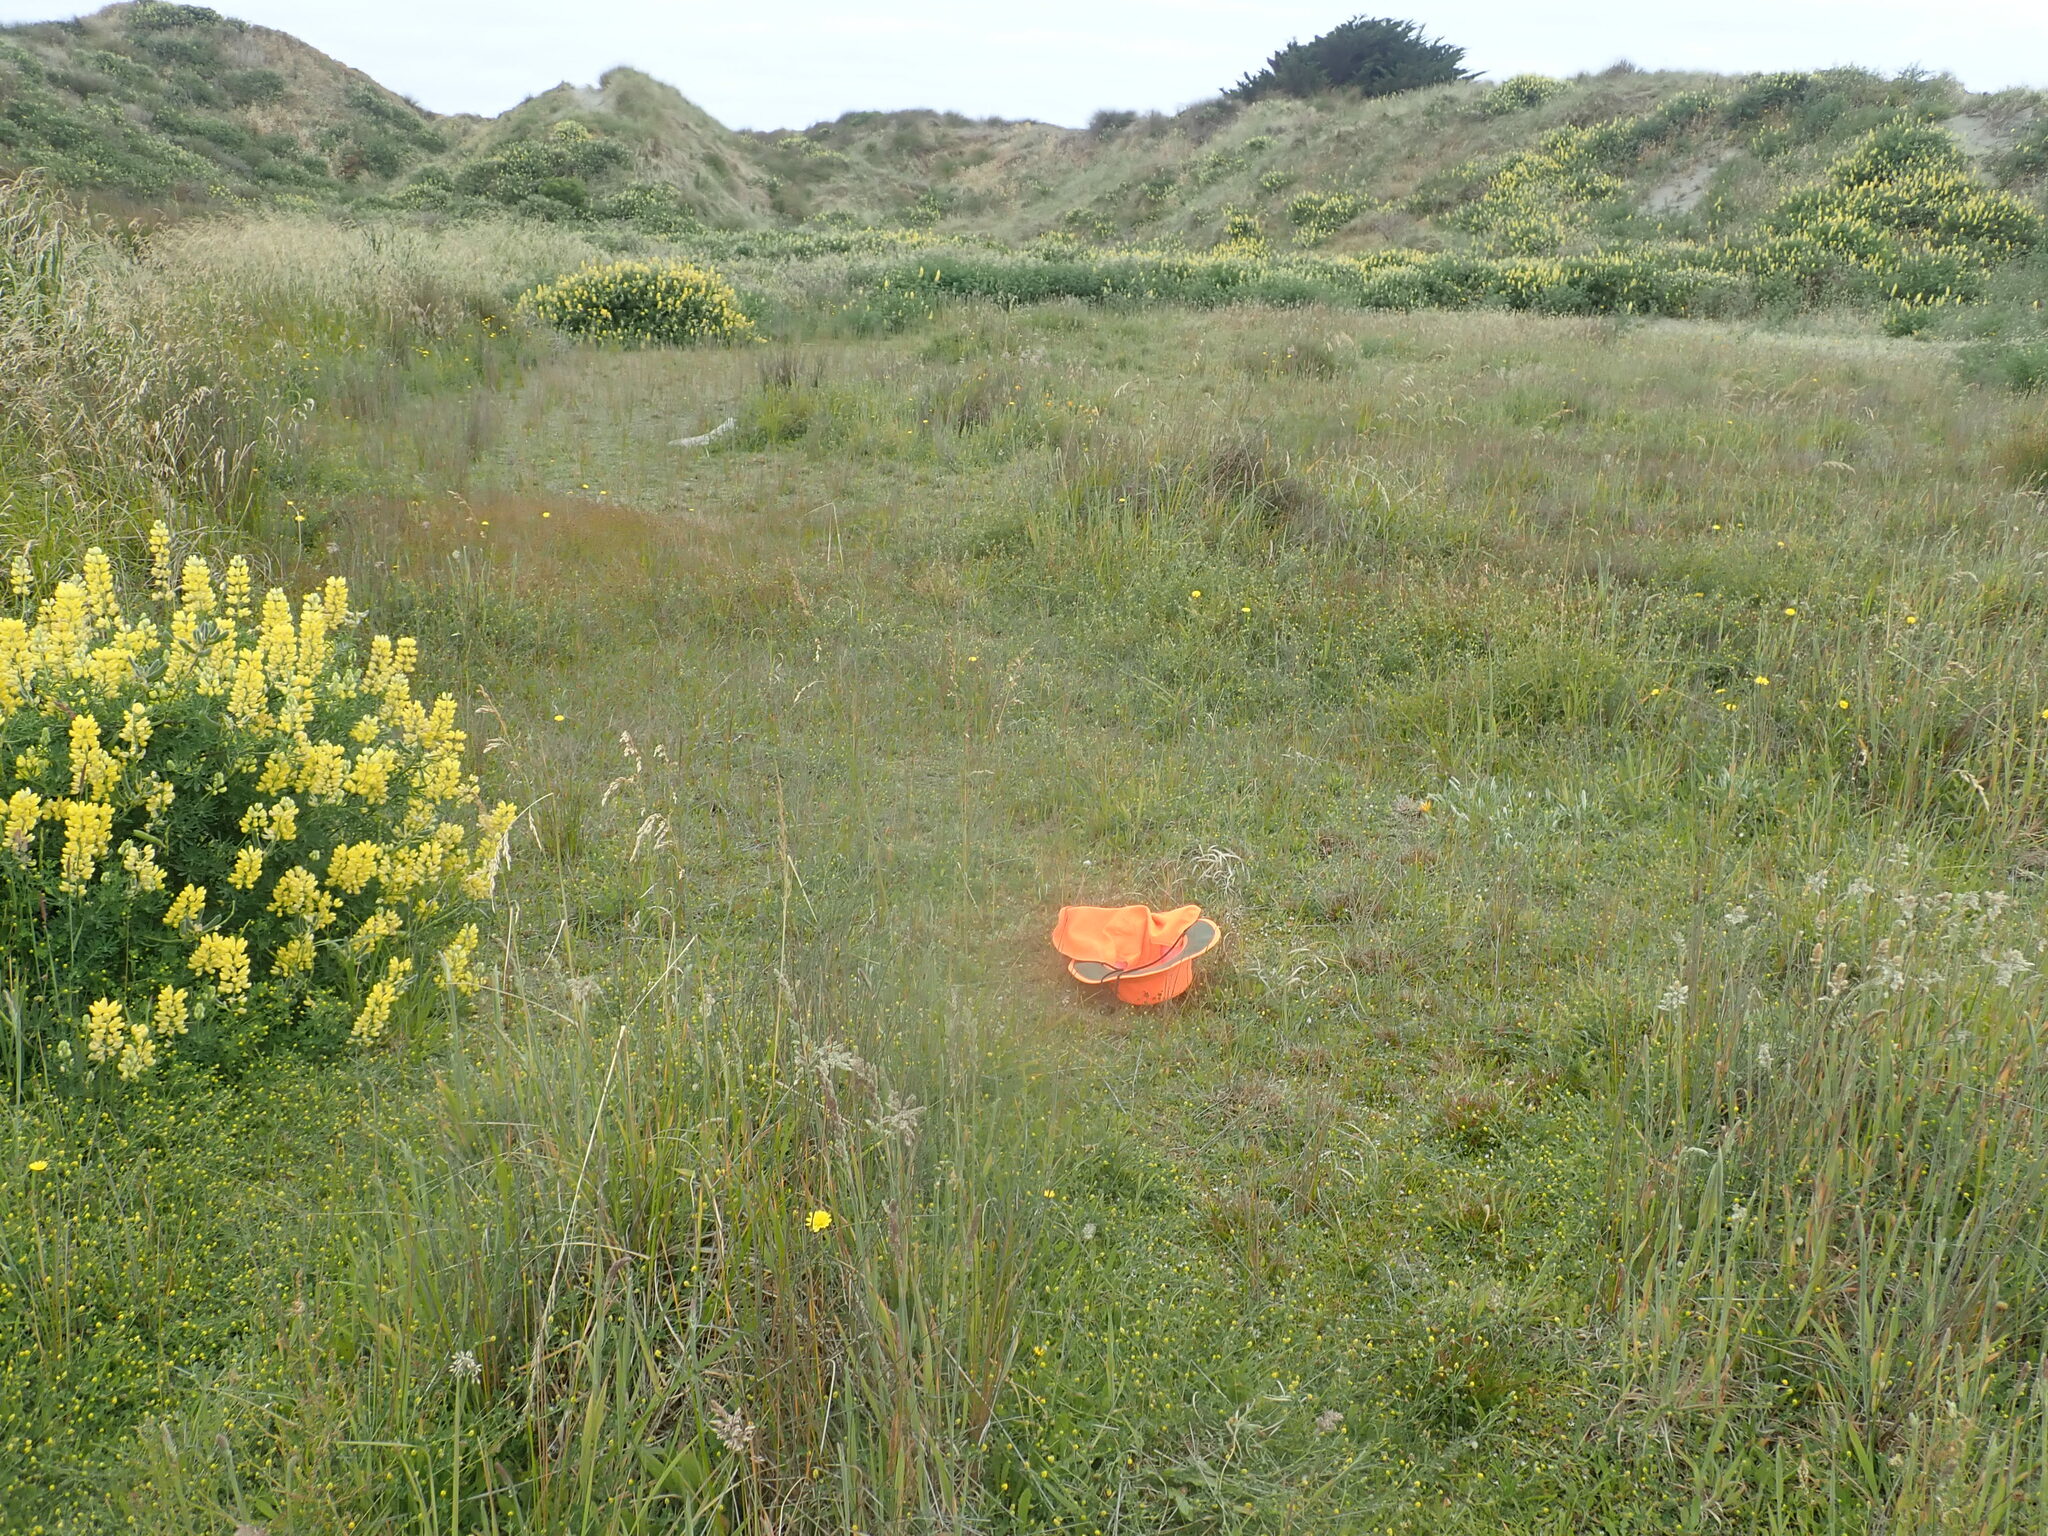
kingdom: Plantae
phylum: Tracheophyta
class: Magnoliopsida
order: Asterales
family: Goodeniaceae
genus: Goodenia
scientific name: Goodenia radicans
